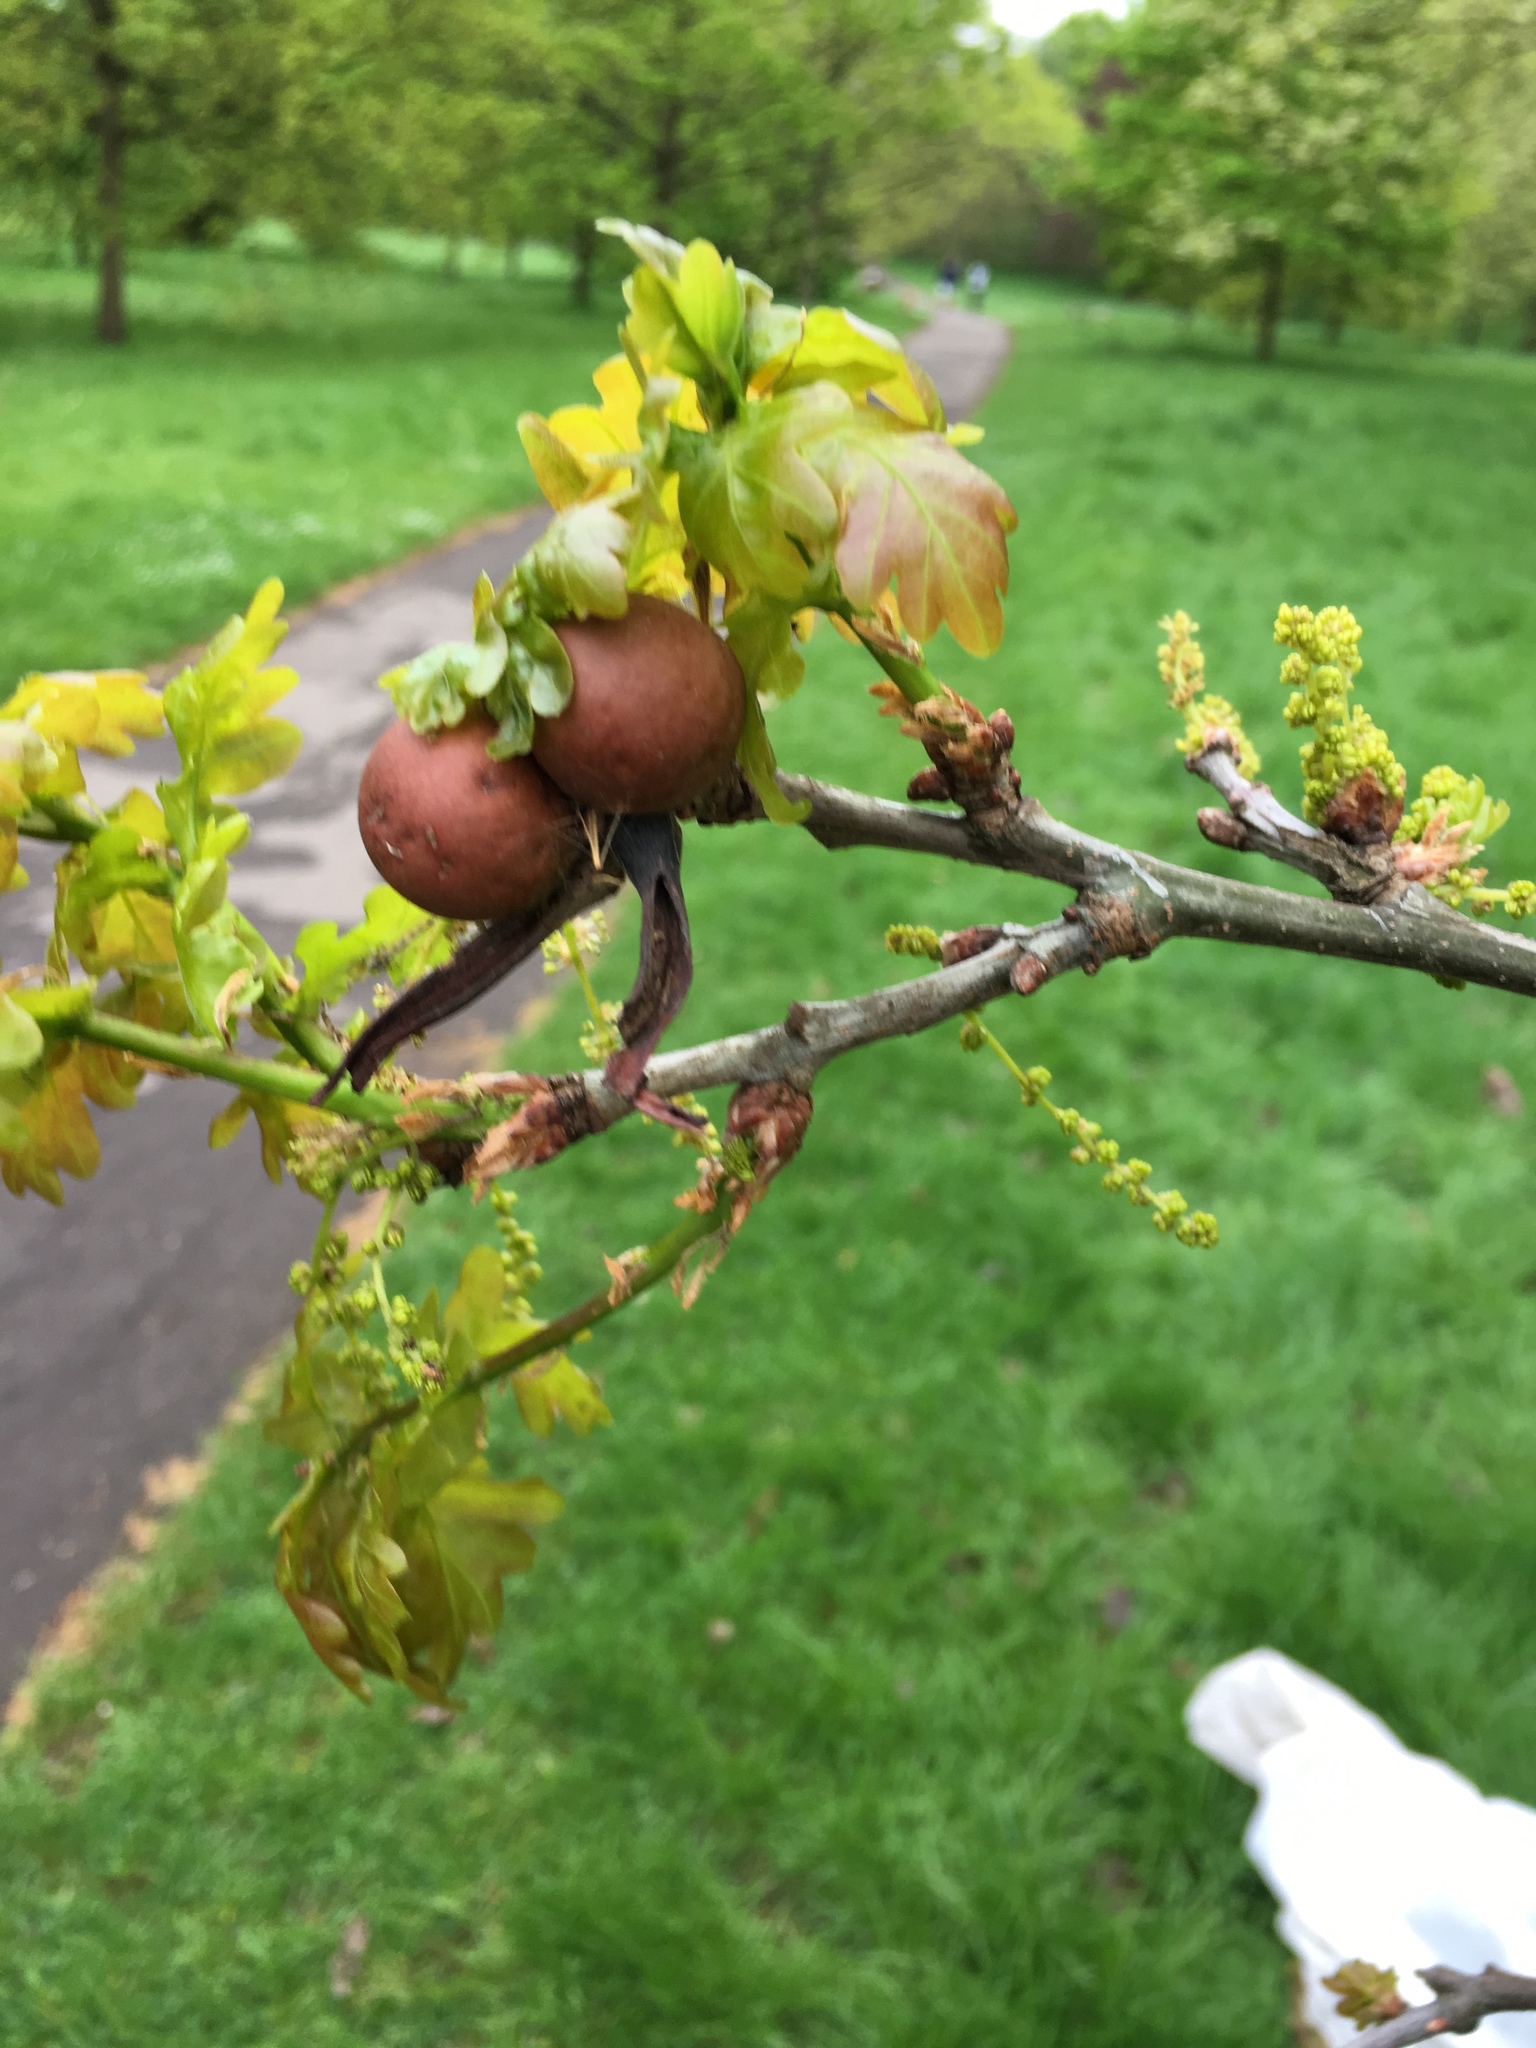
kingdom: Animalia
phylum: Arthropoda
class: Insecta
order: Hymenoptera
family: Cynipidae
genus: Andricus
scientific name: Andricus kollari
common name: Marble gall
